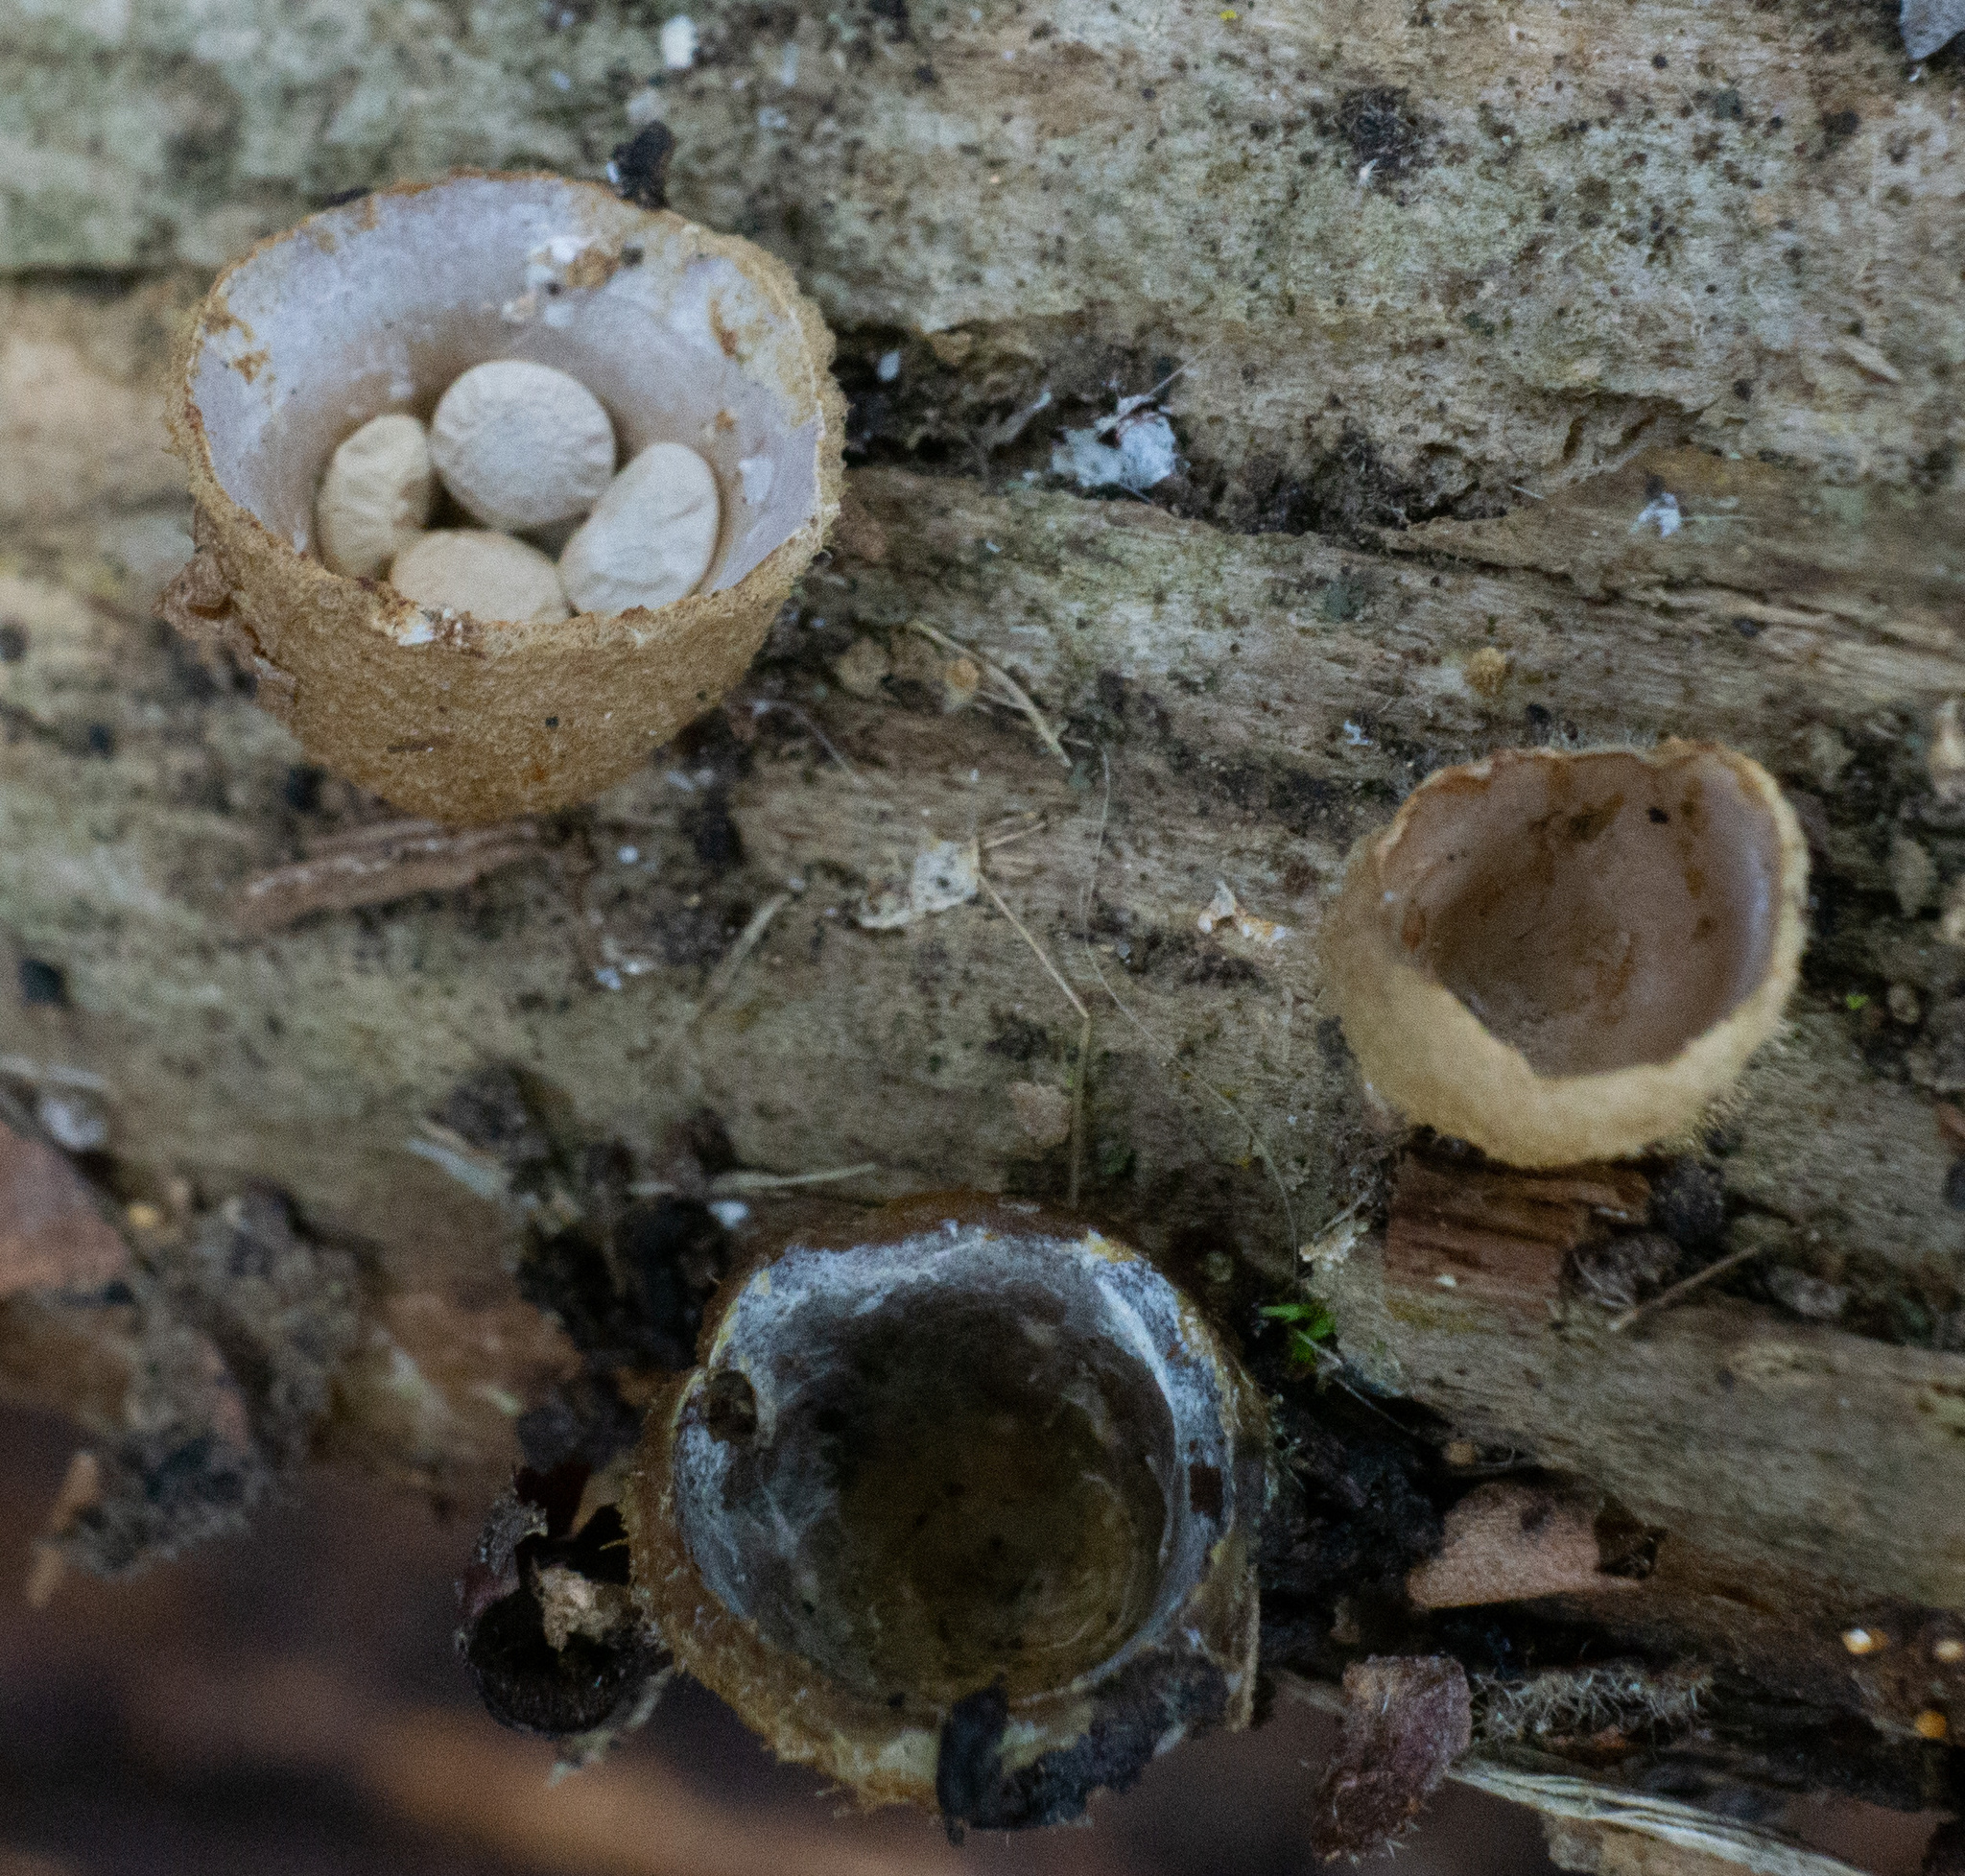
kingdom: Fungi
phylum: Basidiomycota
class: Agaricomycetes
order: Agaricales
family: Nidulariaceae
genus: Crucibulum
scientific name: Crucibulum laeve
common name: Common bird's nest
